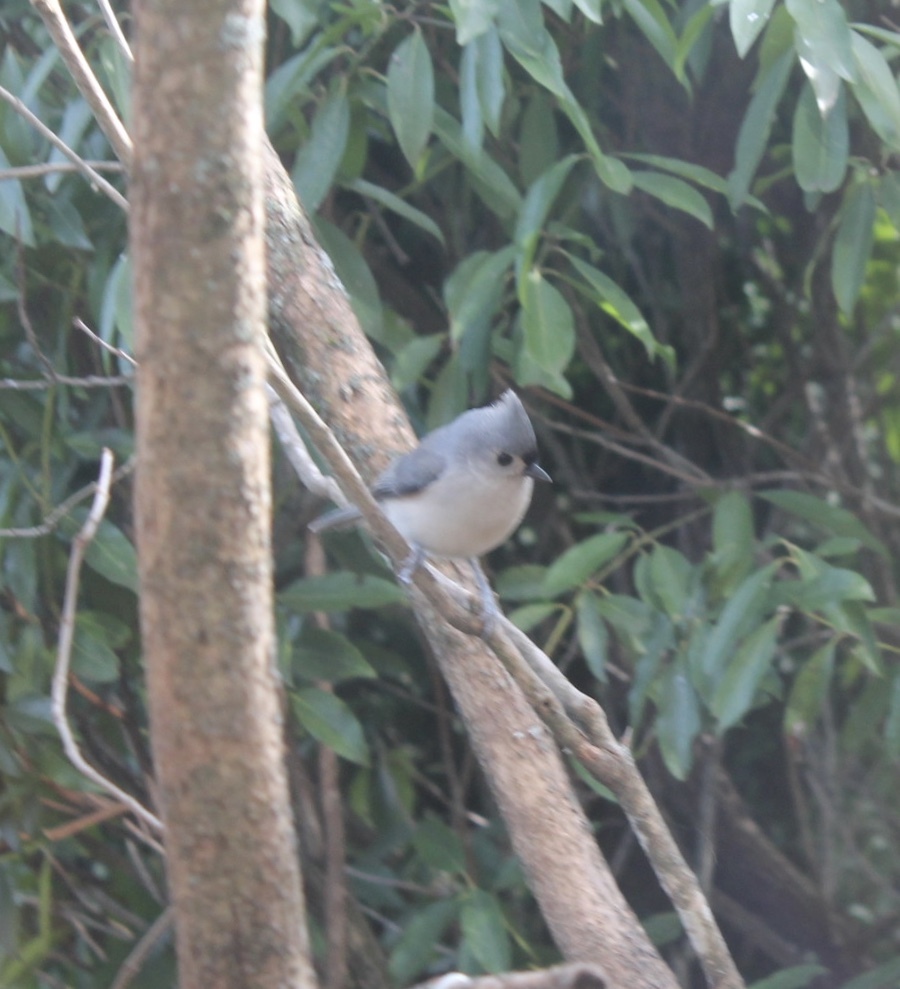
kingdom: Animalia
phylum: Chordata
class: Aves
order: Passeriformes
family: Paridae
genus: Baeolophus
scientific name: Baeolophus bicolor
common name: Tufted titmouse
